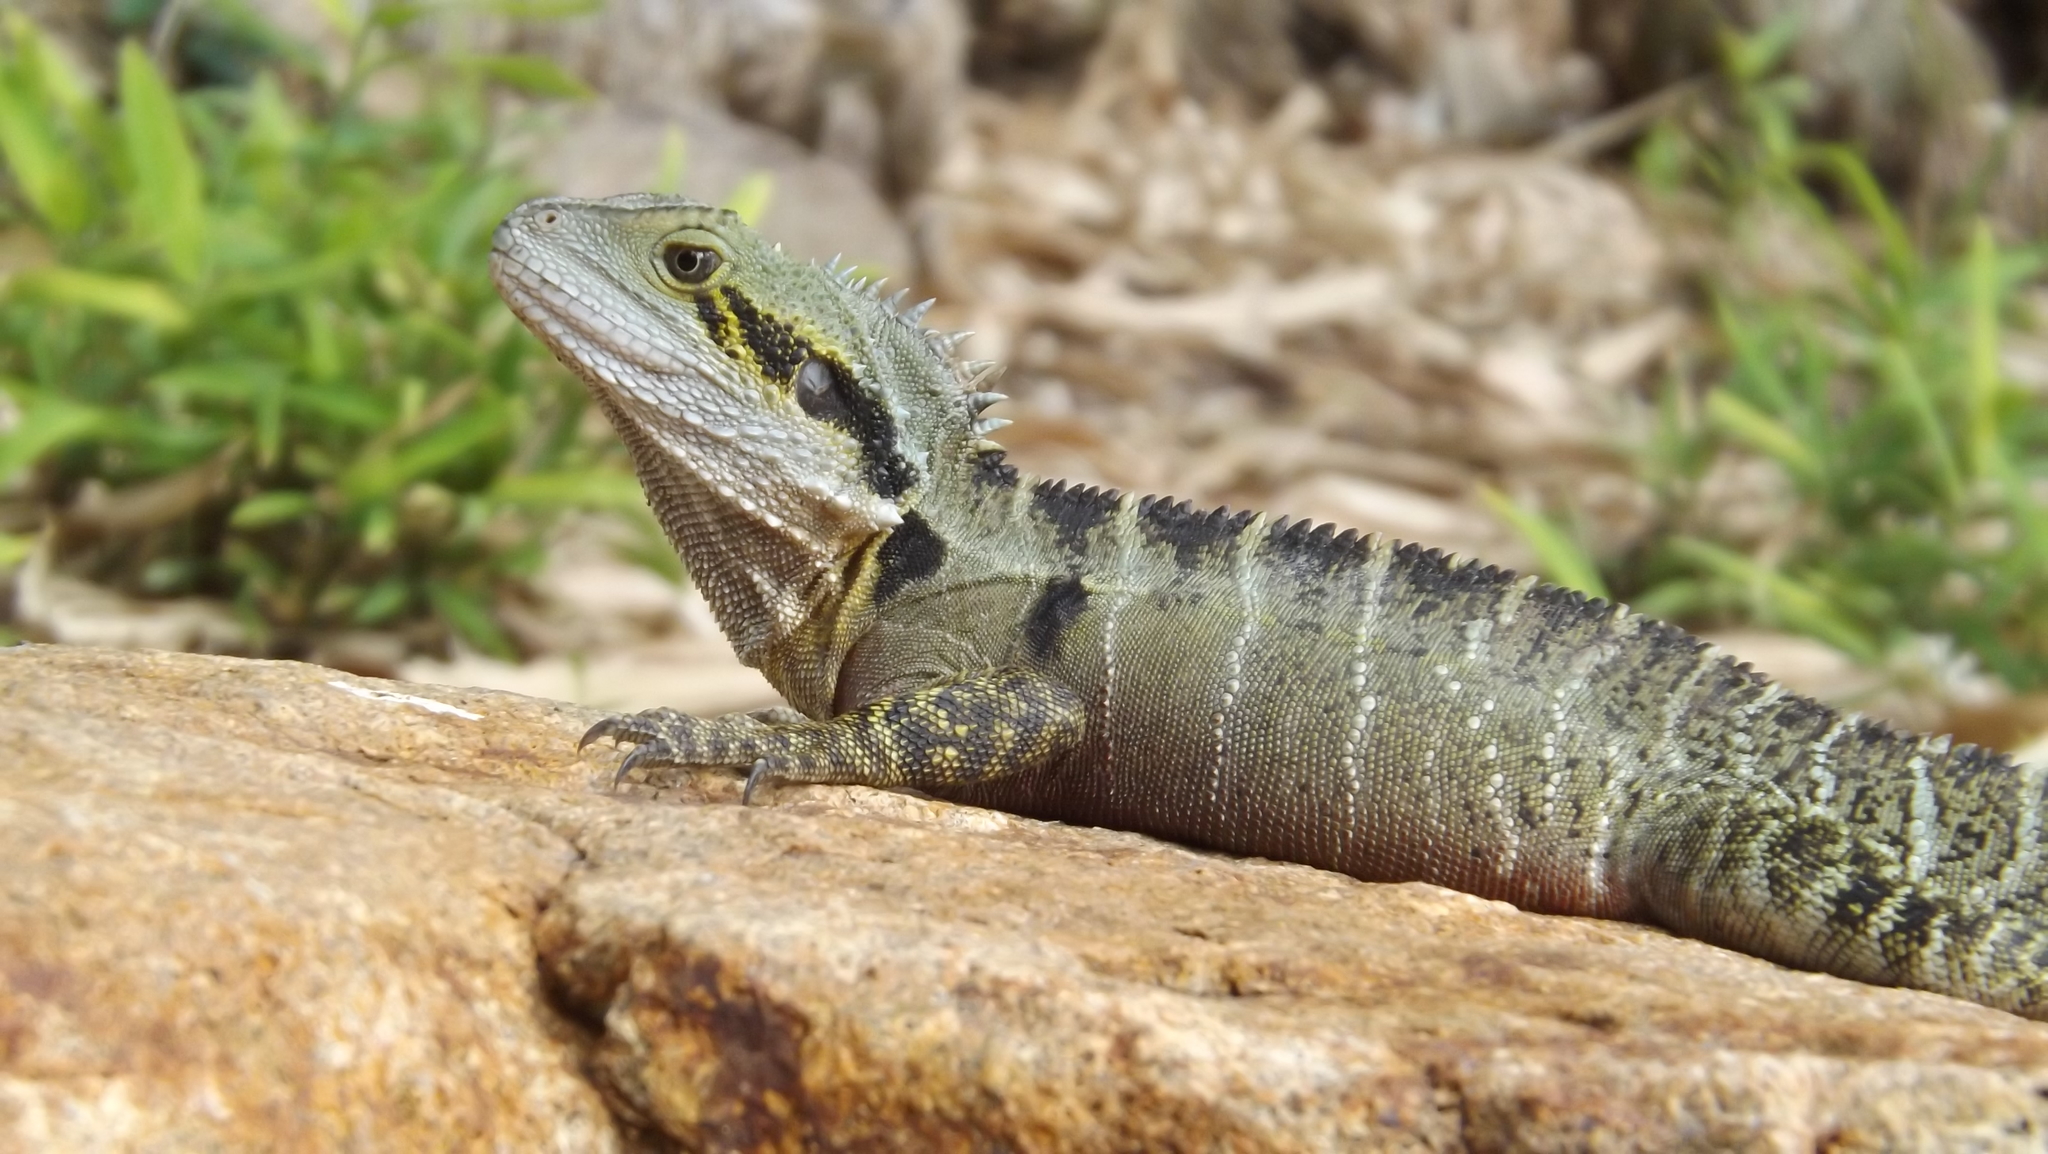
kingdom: Animalia
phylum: Chordata
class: Squamata
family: Agamidae
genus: Intellagama
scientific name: Intellagama lesueurii
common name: Eastern water dragon
